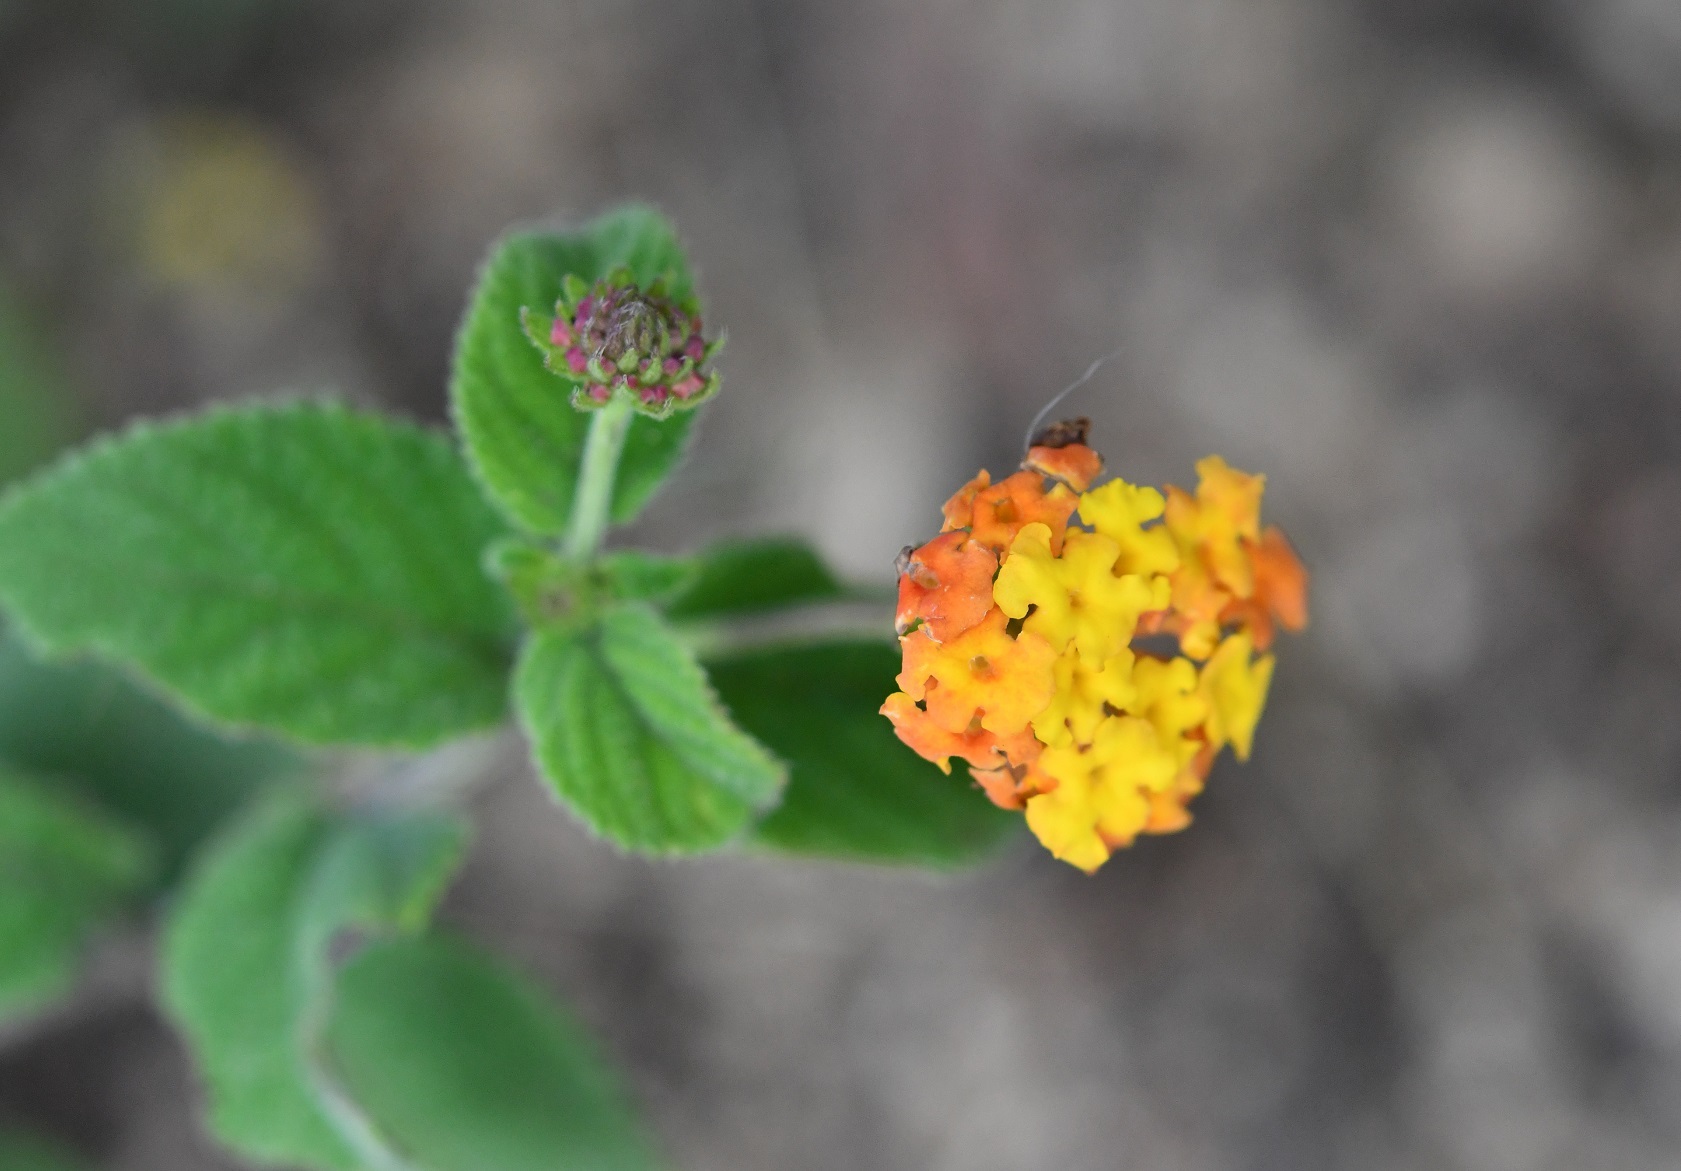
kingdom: Plantae
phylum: Tracheophyta
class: Magnoliopsida
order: Lamiales
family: Verbenaceae
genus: Lantana
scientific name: Lantana horrida
